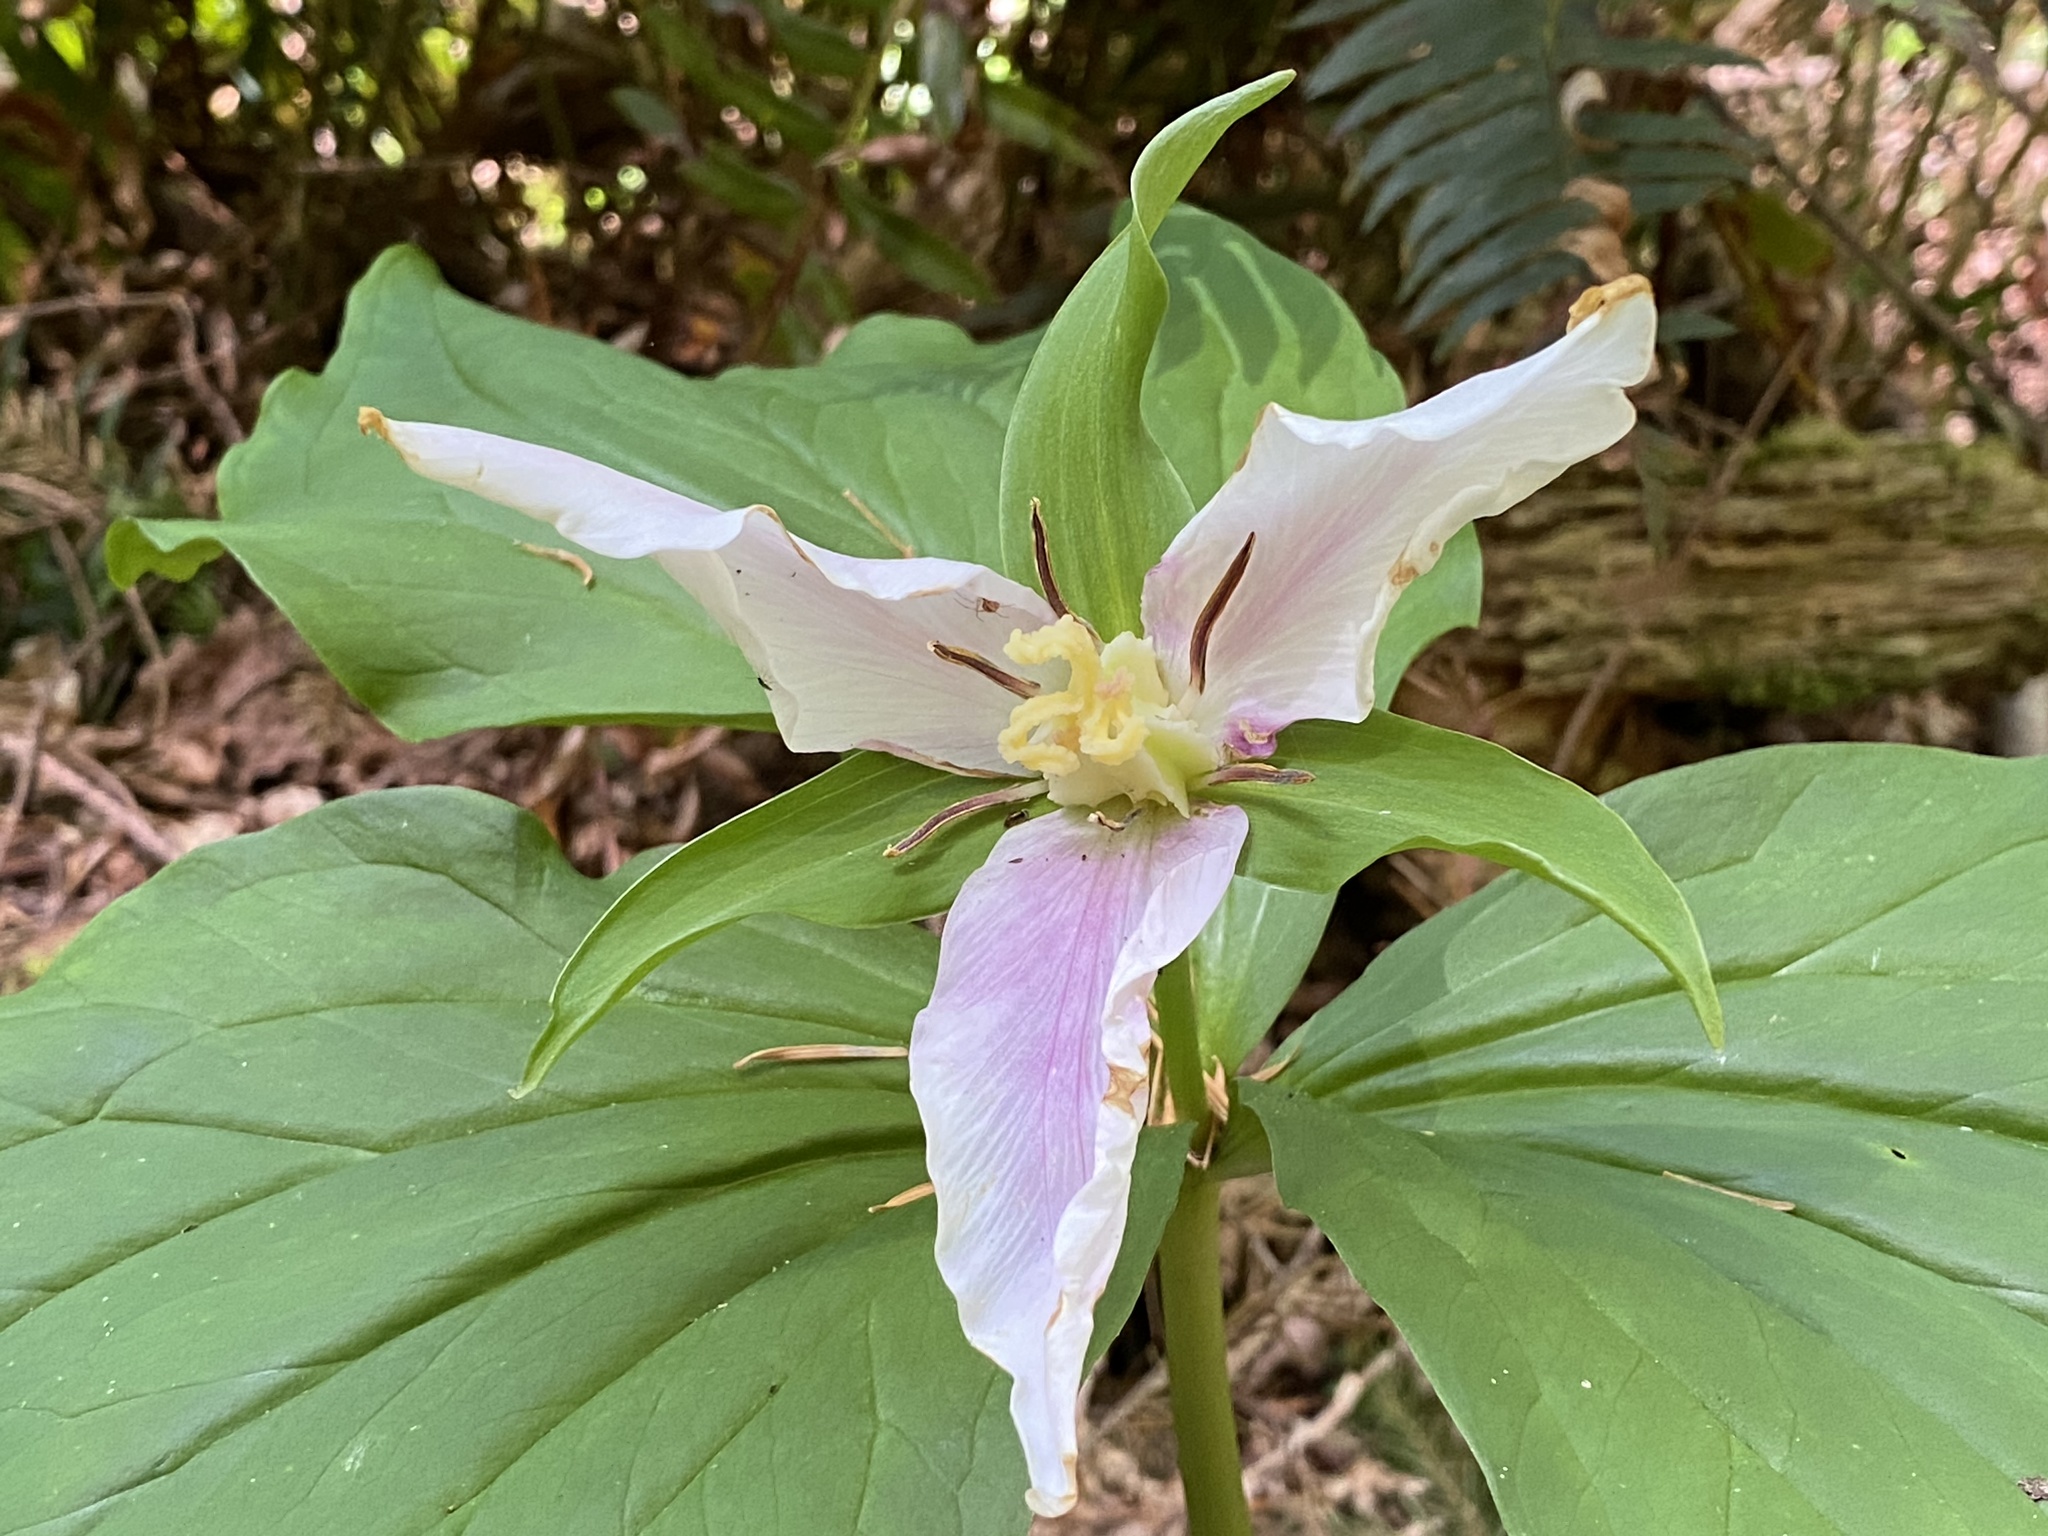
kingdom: Plantae
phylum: Tracheophyta
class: Liliopsida
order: Liliales
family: Melanthiaceae
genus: Trillium
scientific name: Trillium ovatum
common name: Pacific trillium
